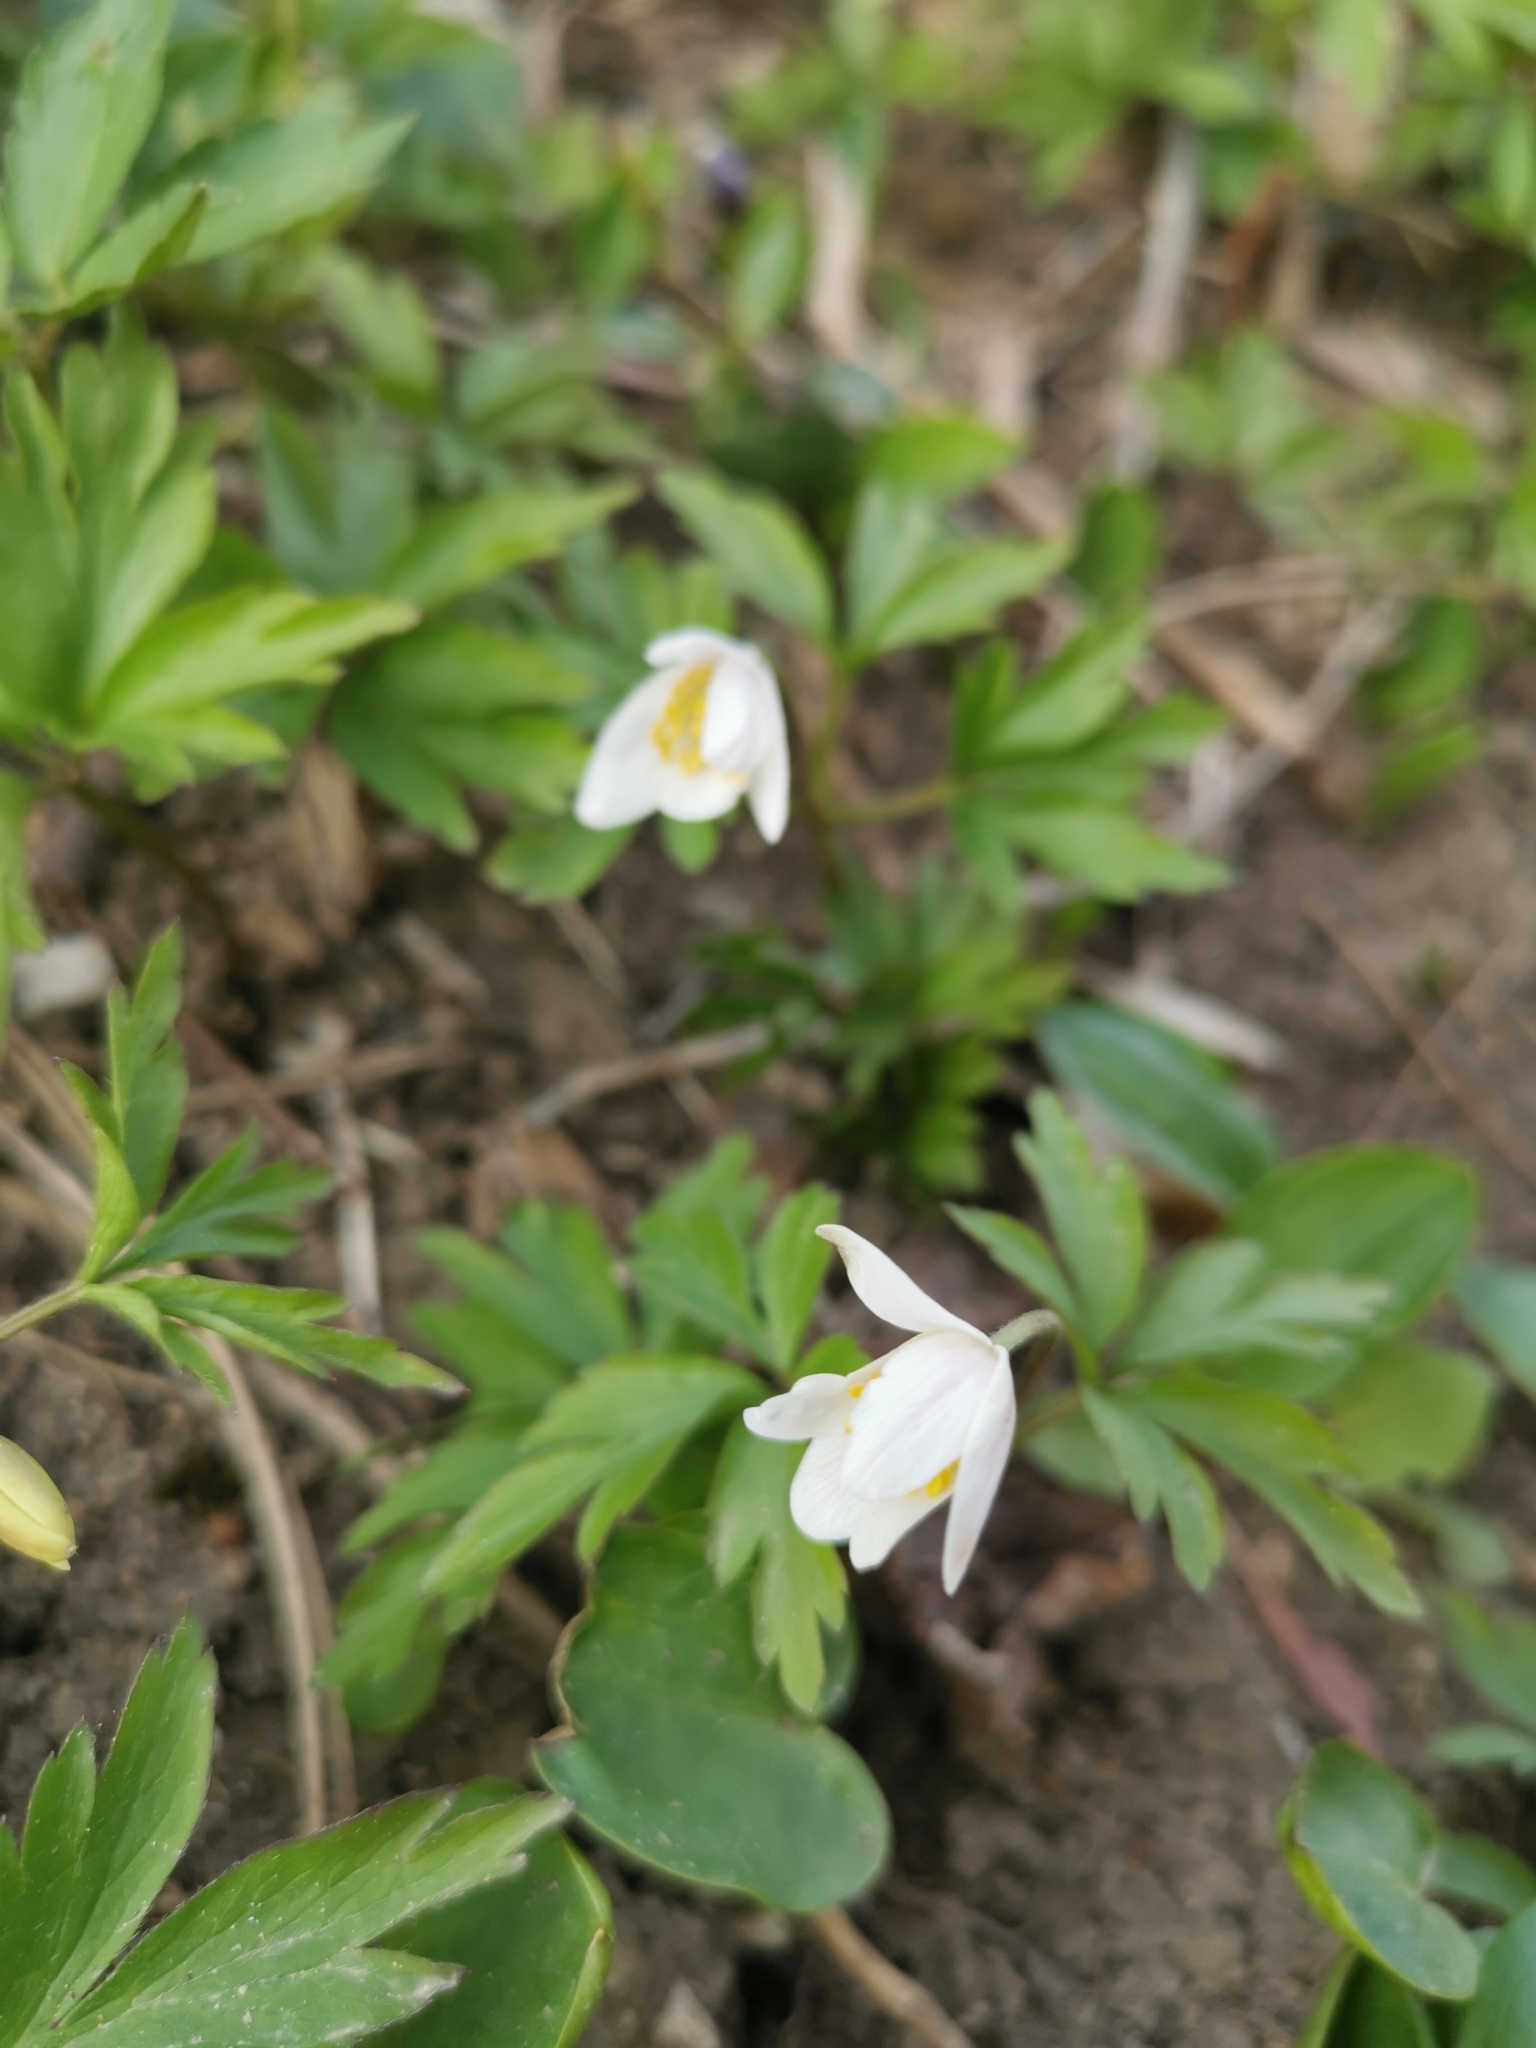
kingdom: Plantae
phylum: Tracheophyta
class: Magnoliopsida
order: Ranunculales
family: Ranunculaceae
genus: Anemone
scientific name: Anemone nemorosa
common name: Wood anemone
